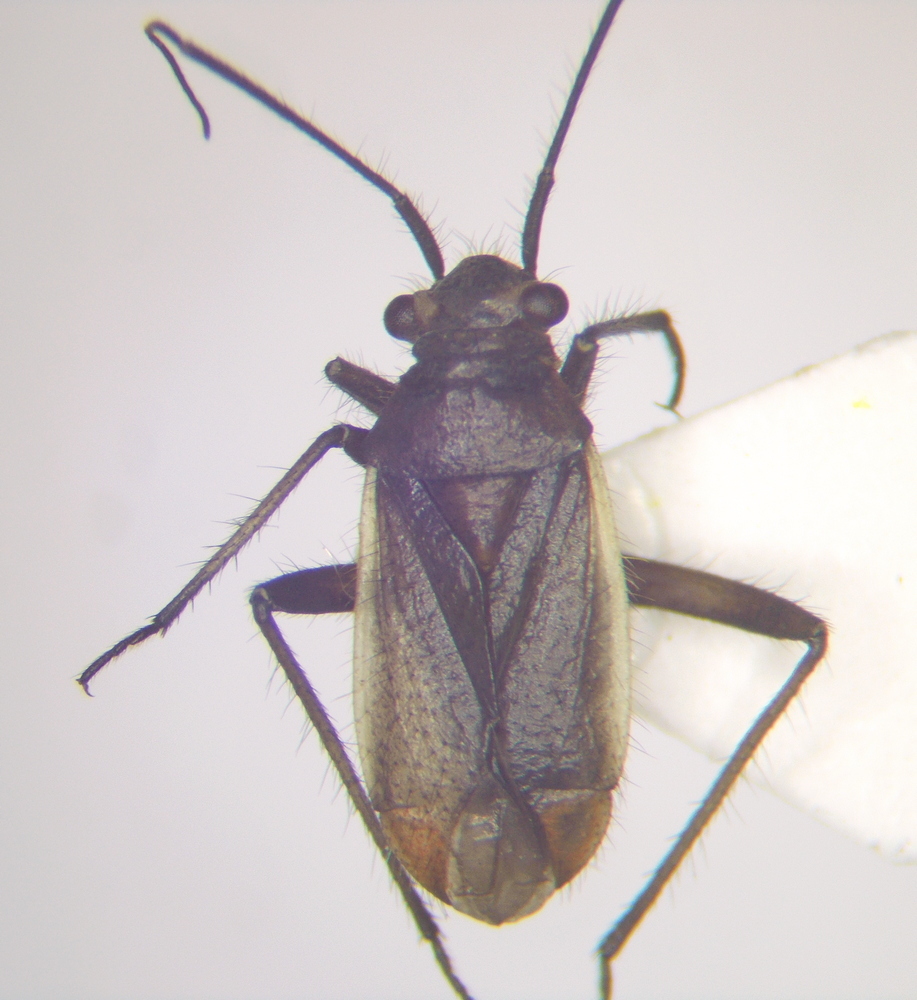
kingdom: Animalia
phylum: Arthropoda
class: Insecta
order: Hemiptera
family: Miridae
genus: Capsodes
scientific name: Capsodes gothicus
